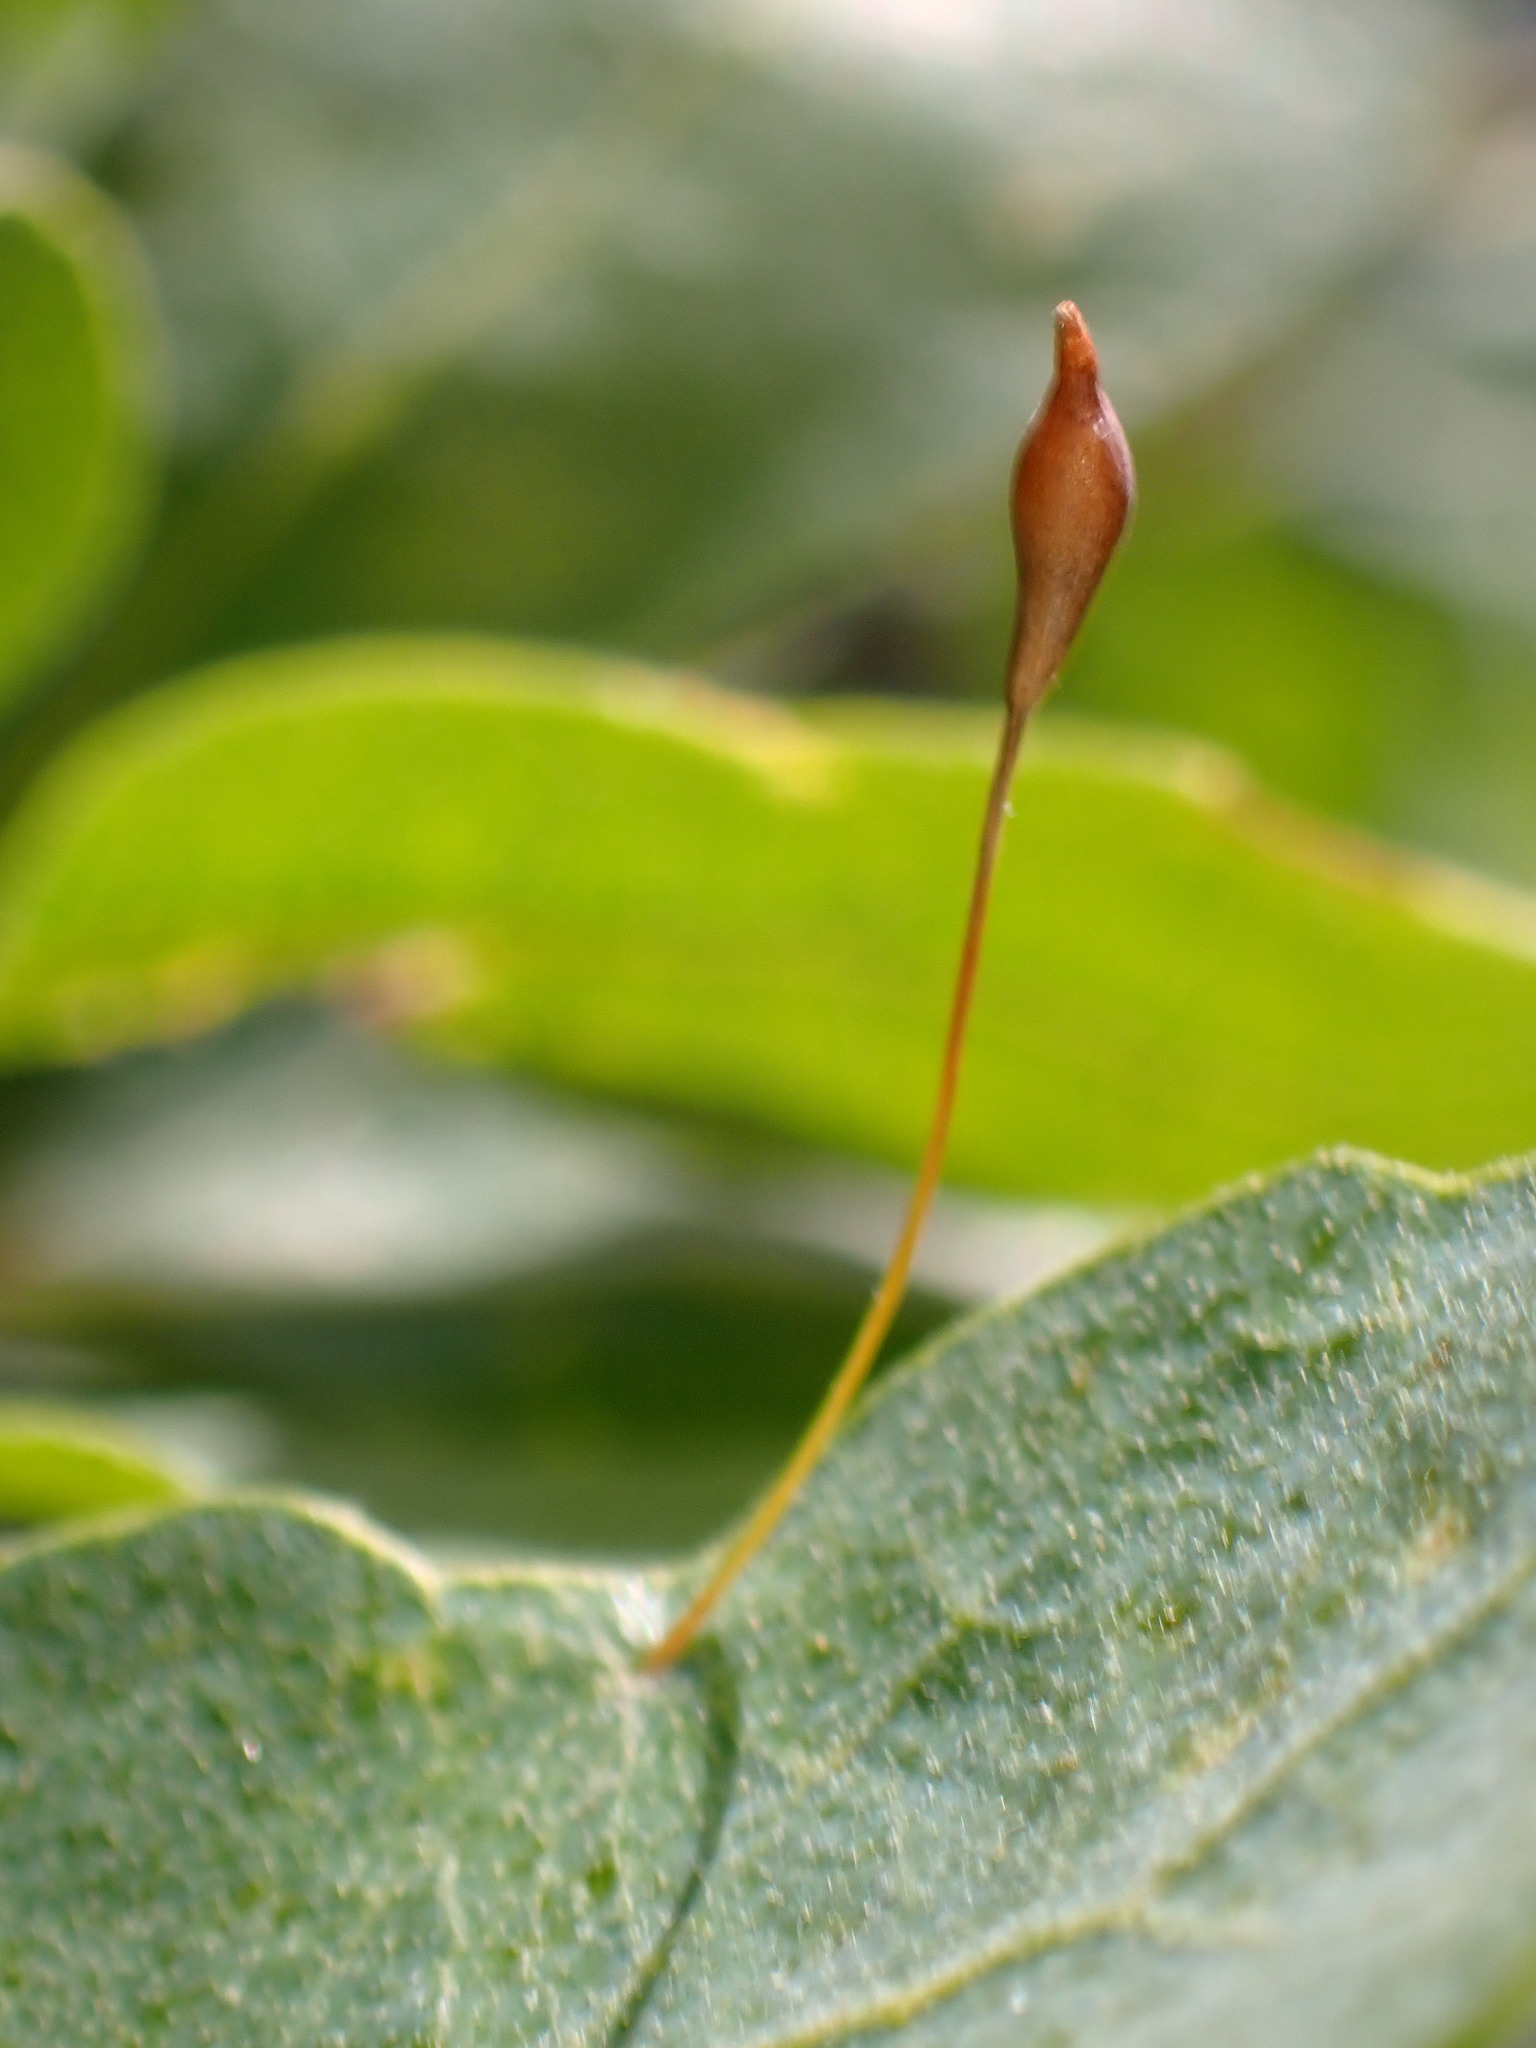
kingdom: Animalia
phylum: Arthropoda
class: Insecta
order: Hymenoptera
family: Cynipidae
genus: Andricus
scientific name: Andricus
